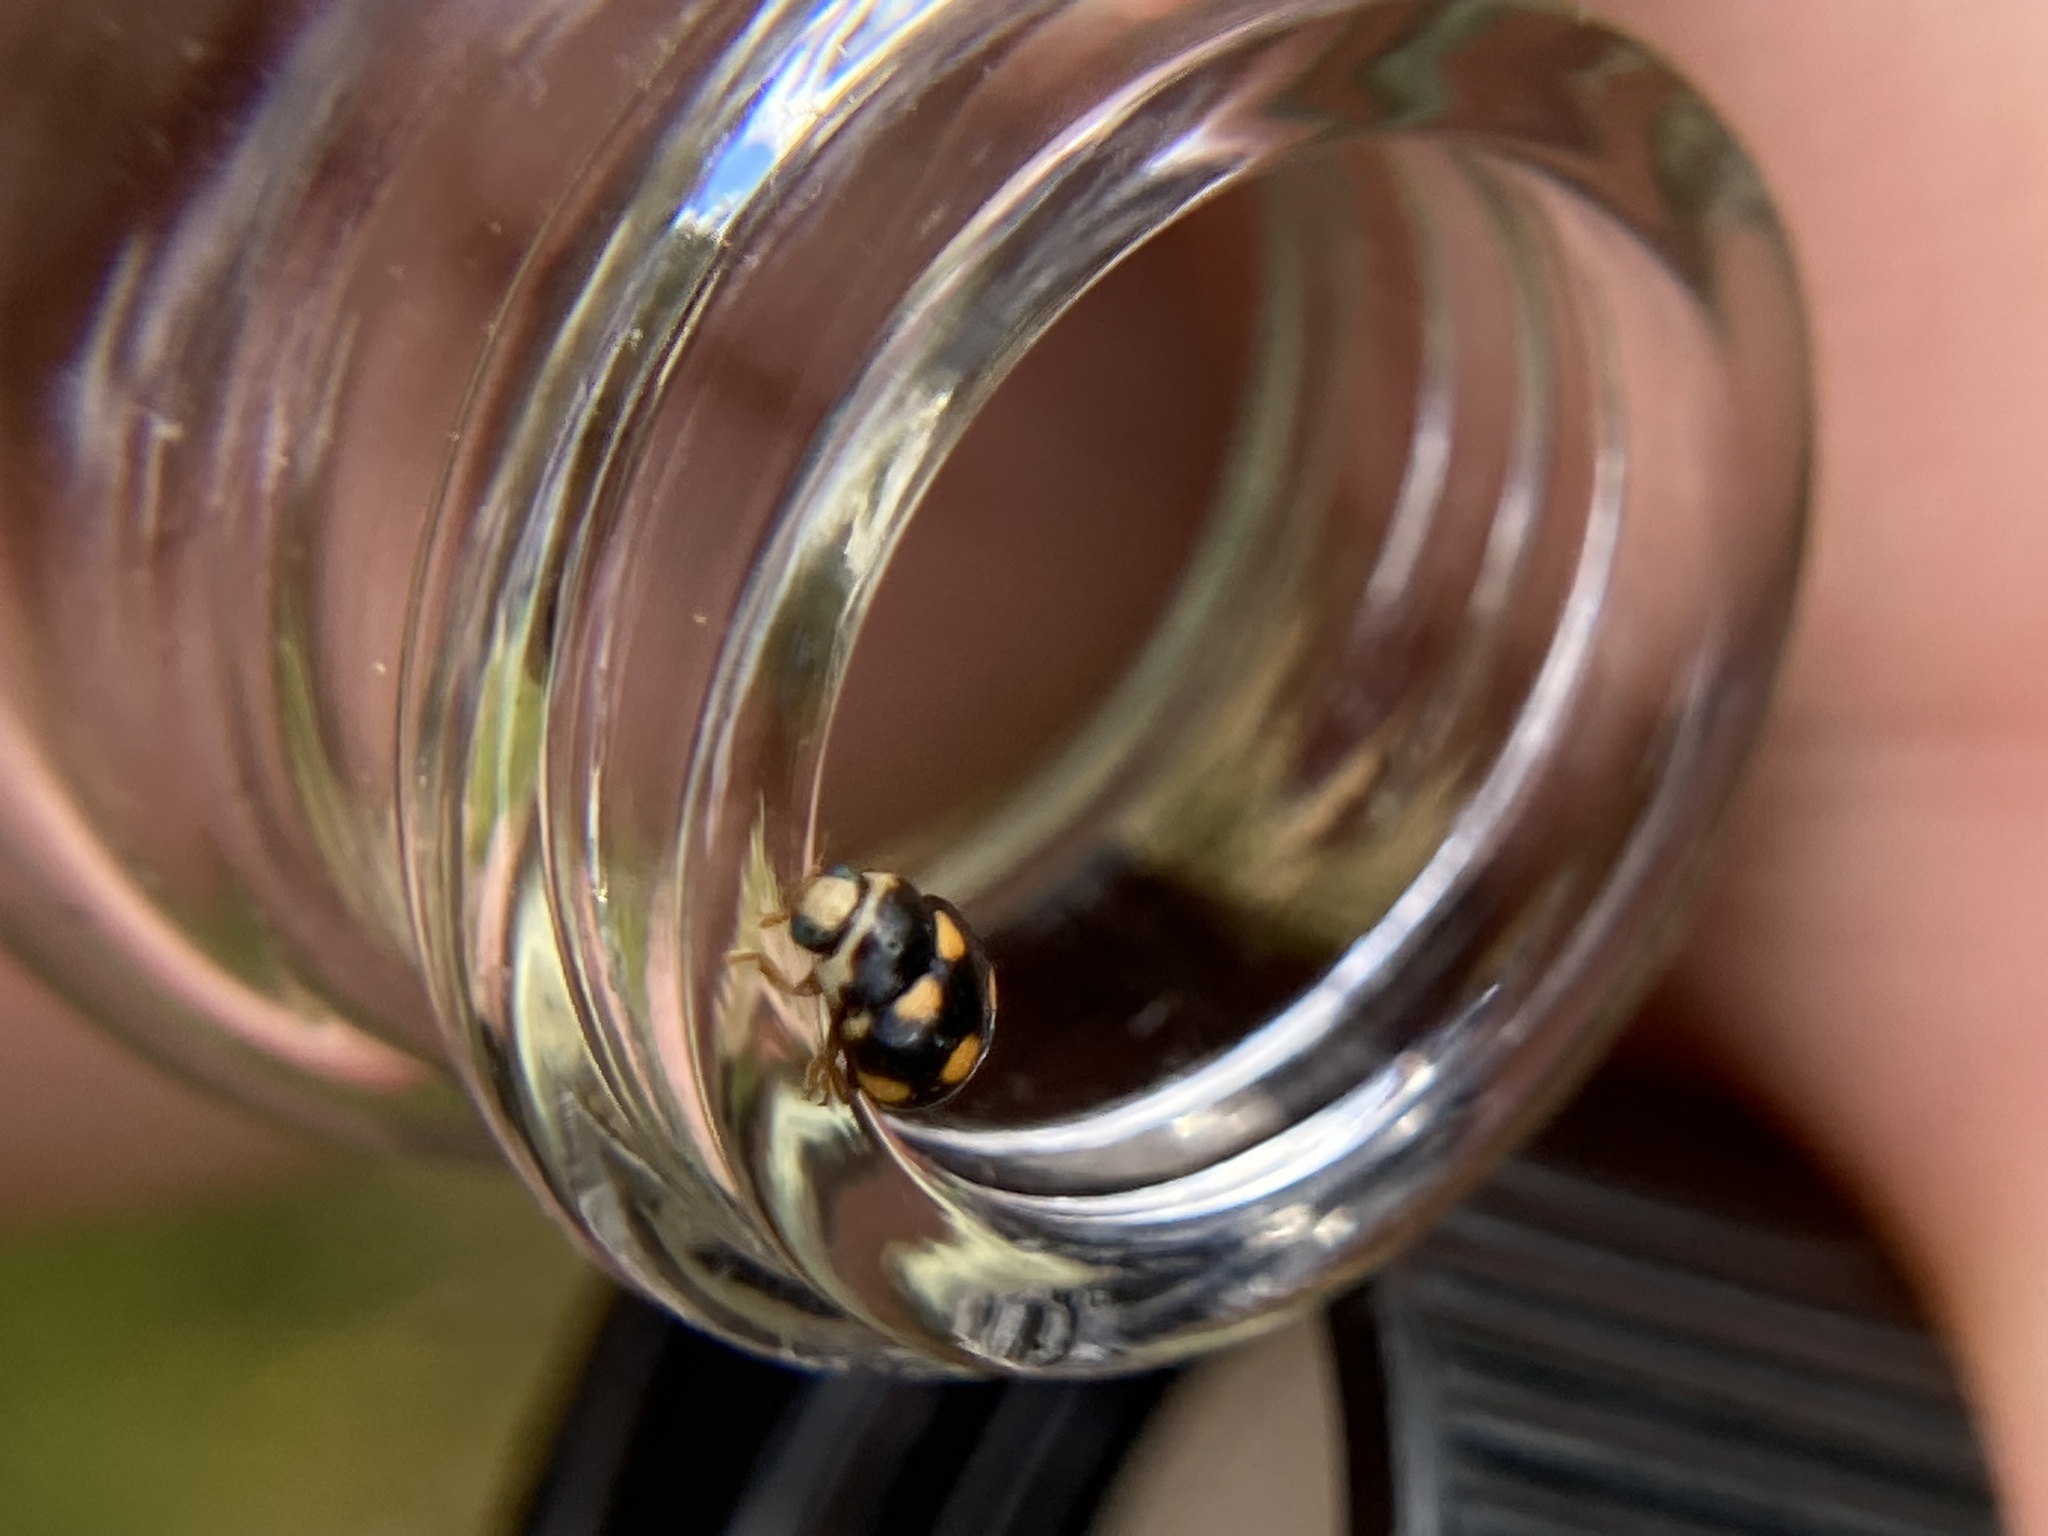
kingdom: Animalia
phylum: Arthropoda
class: Insecta
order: Coleoptera
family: Coccinellidae
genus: Brachiacantha
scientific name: Brachiacantha ursina
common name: Ursine spurleg lady beetle
